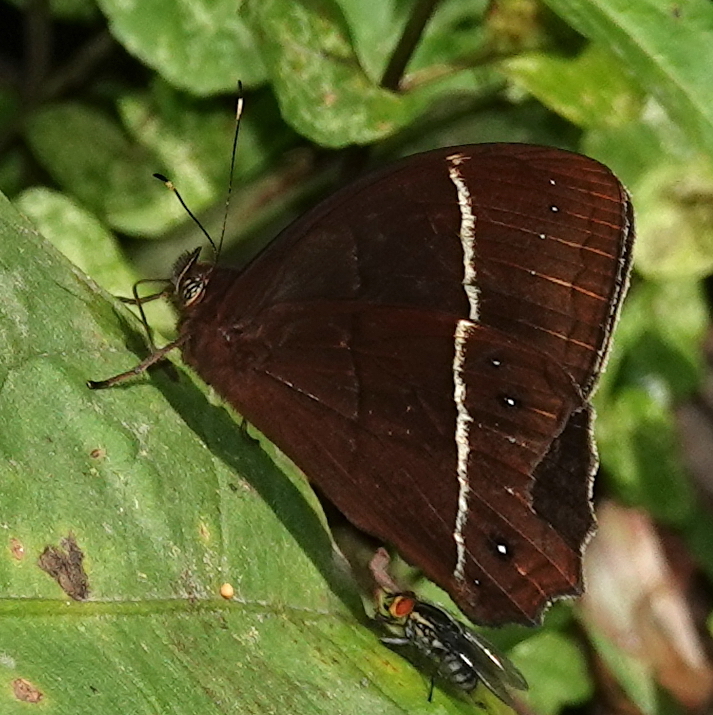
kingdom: Animalia
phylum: Arthropoda
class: Insecta
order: Lepidoptera
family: Nymphalidae
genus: Parataygetis
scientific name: Parataygetis lineata
